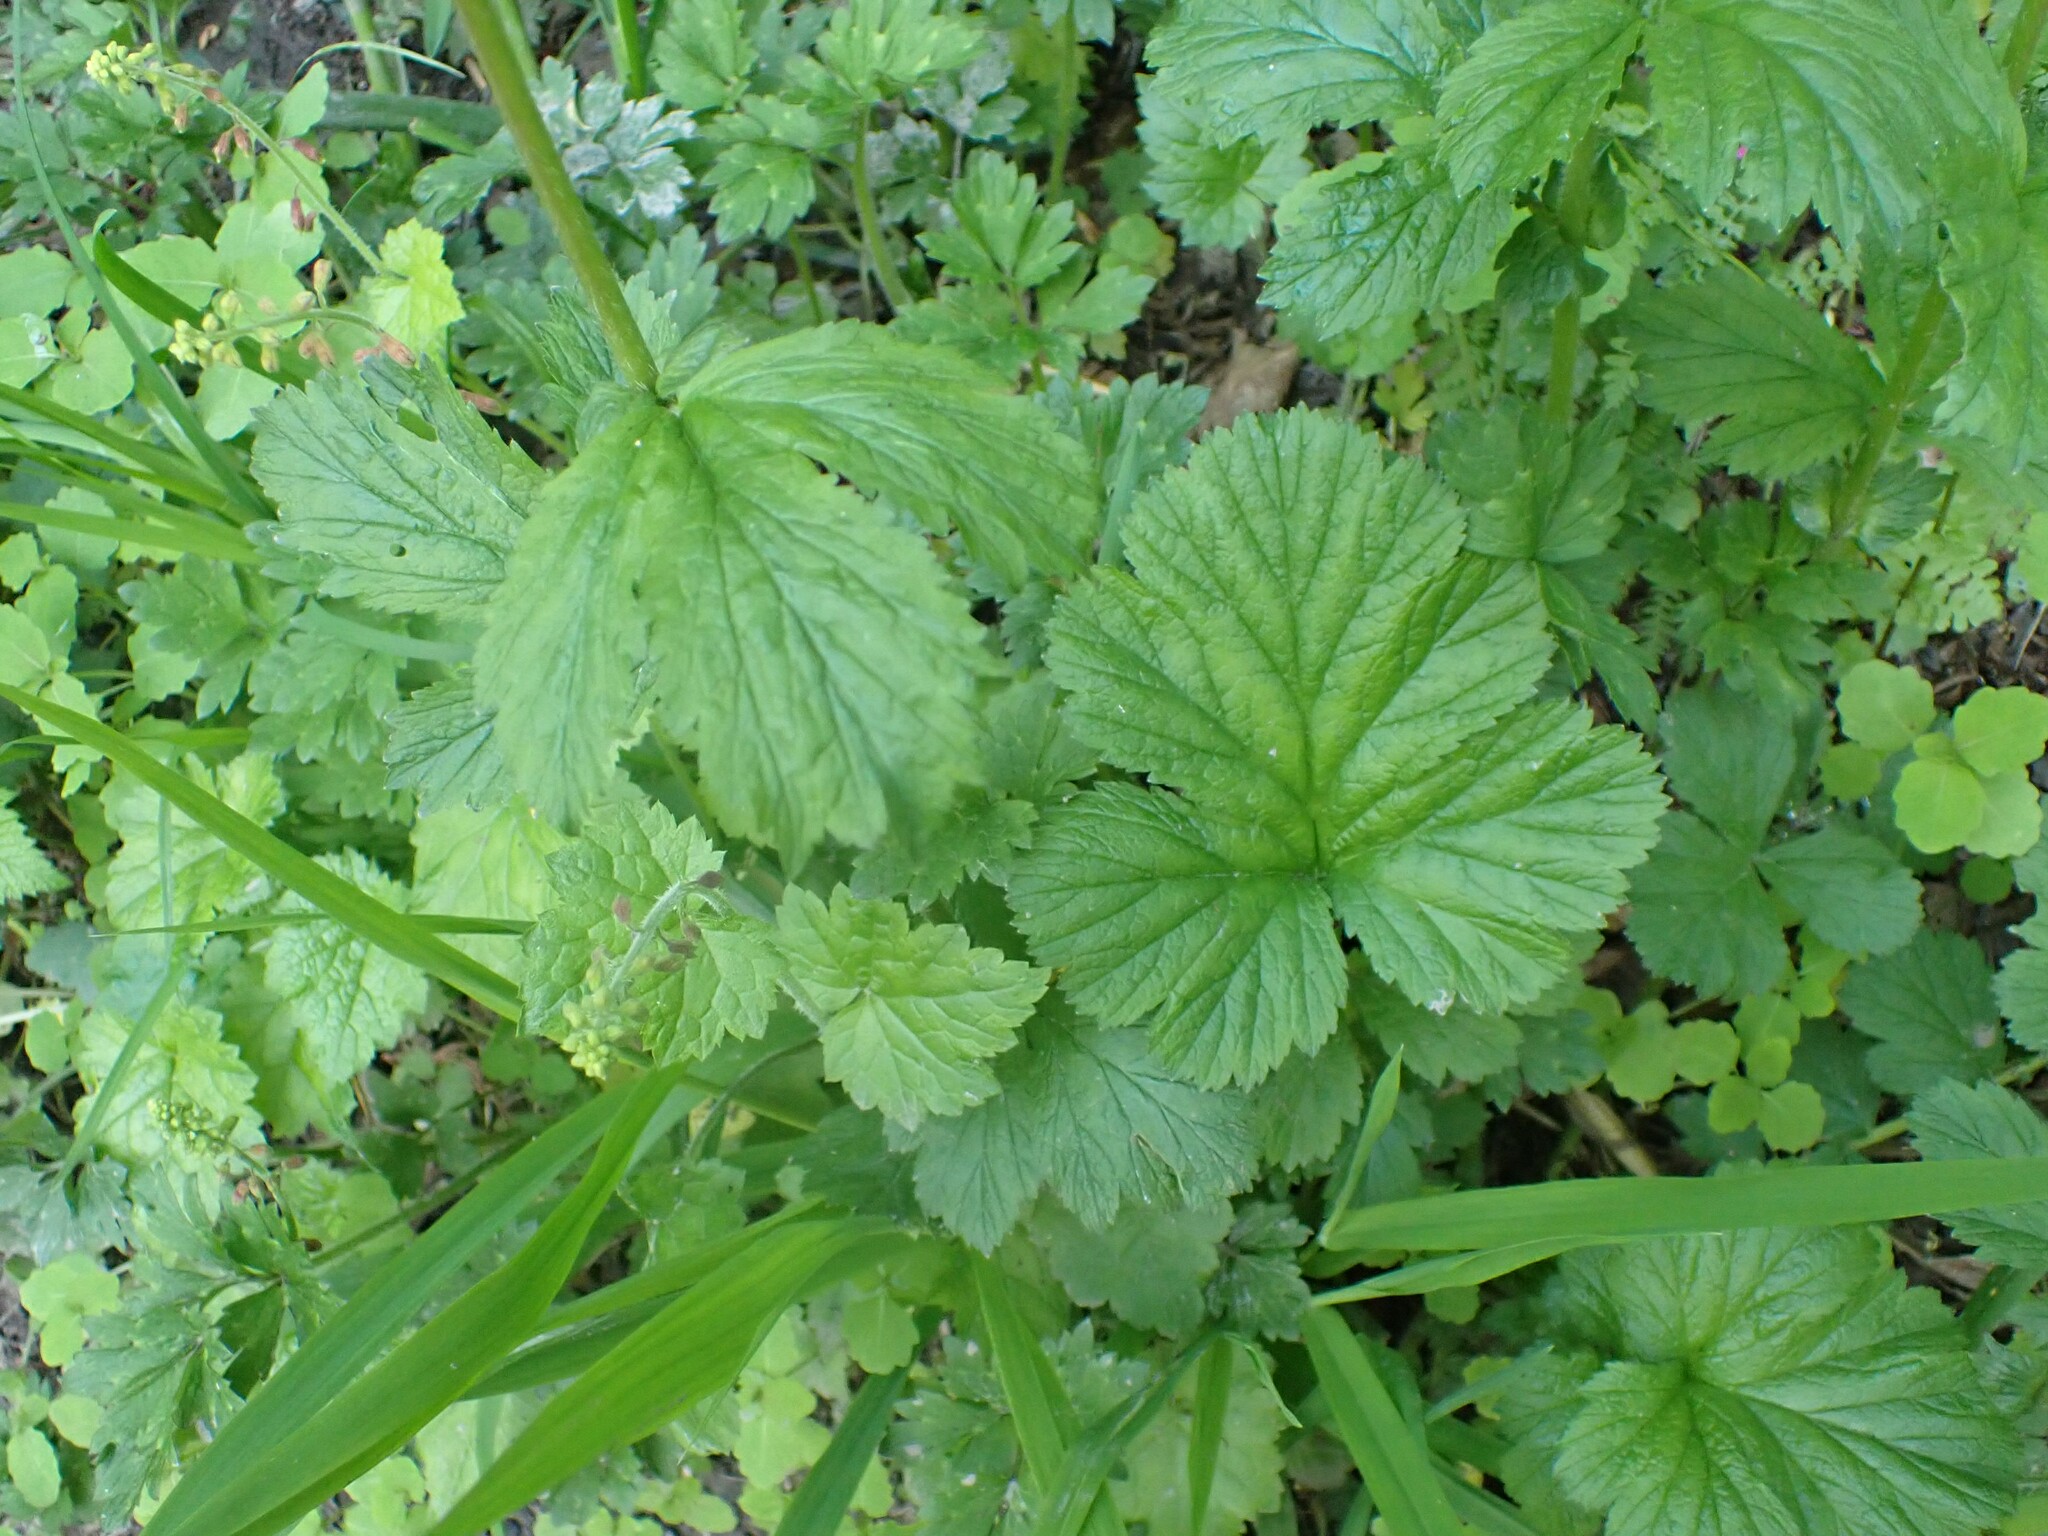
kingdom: Plantae
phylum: Tracheophyta
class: Magnoliopsida
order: Rosales
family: Rosaceae
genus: Geum
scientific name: Geum macrophyllum
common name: Large-leaved avens
